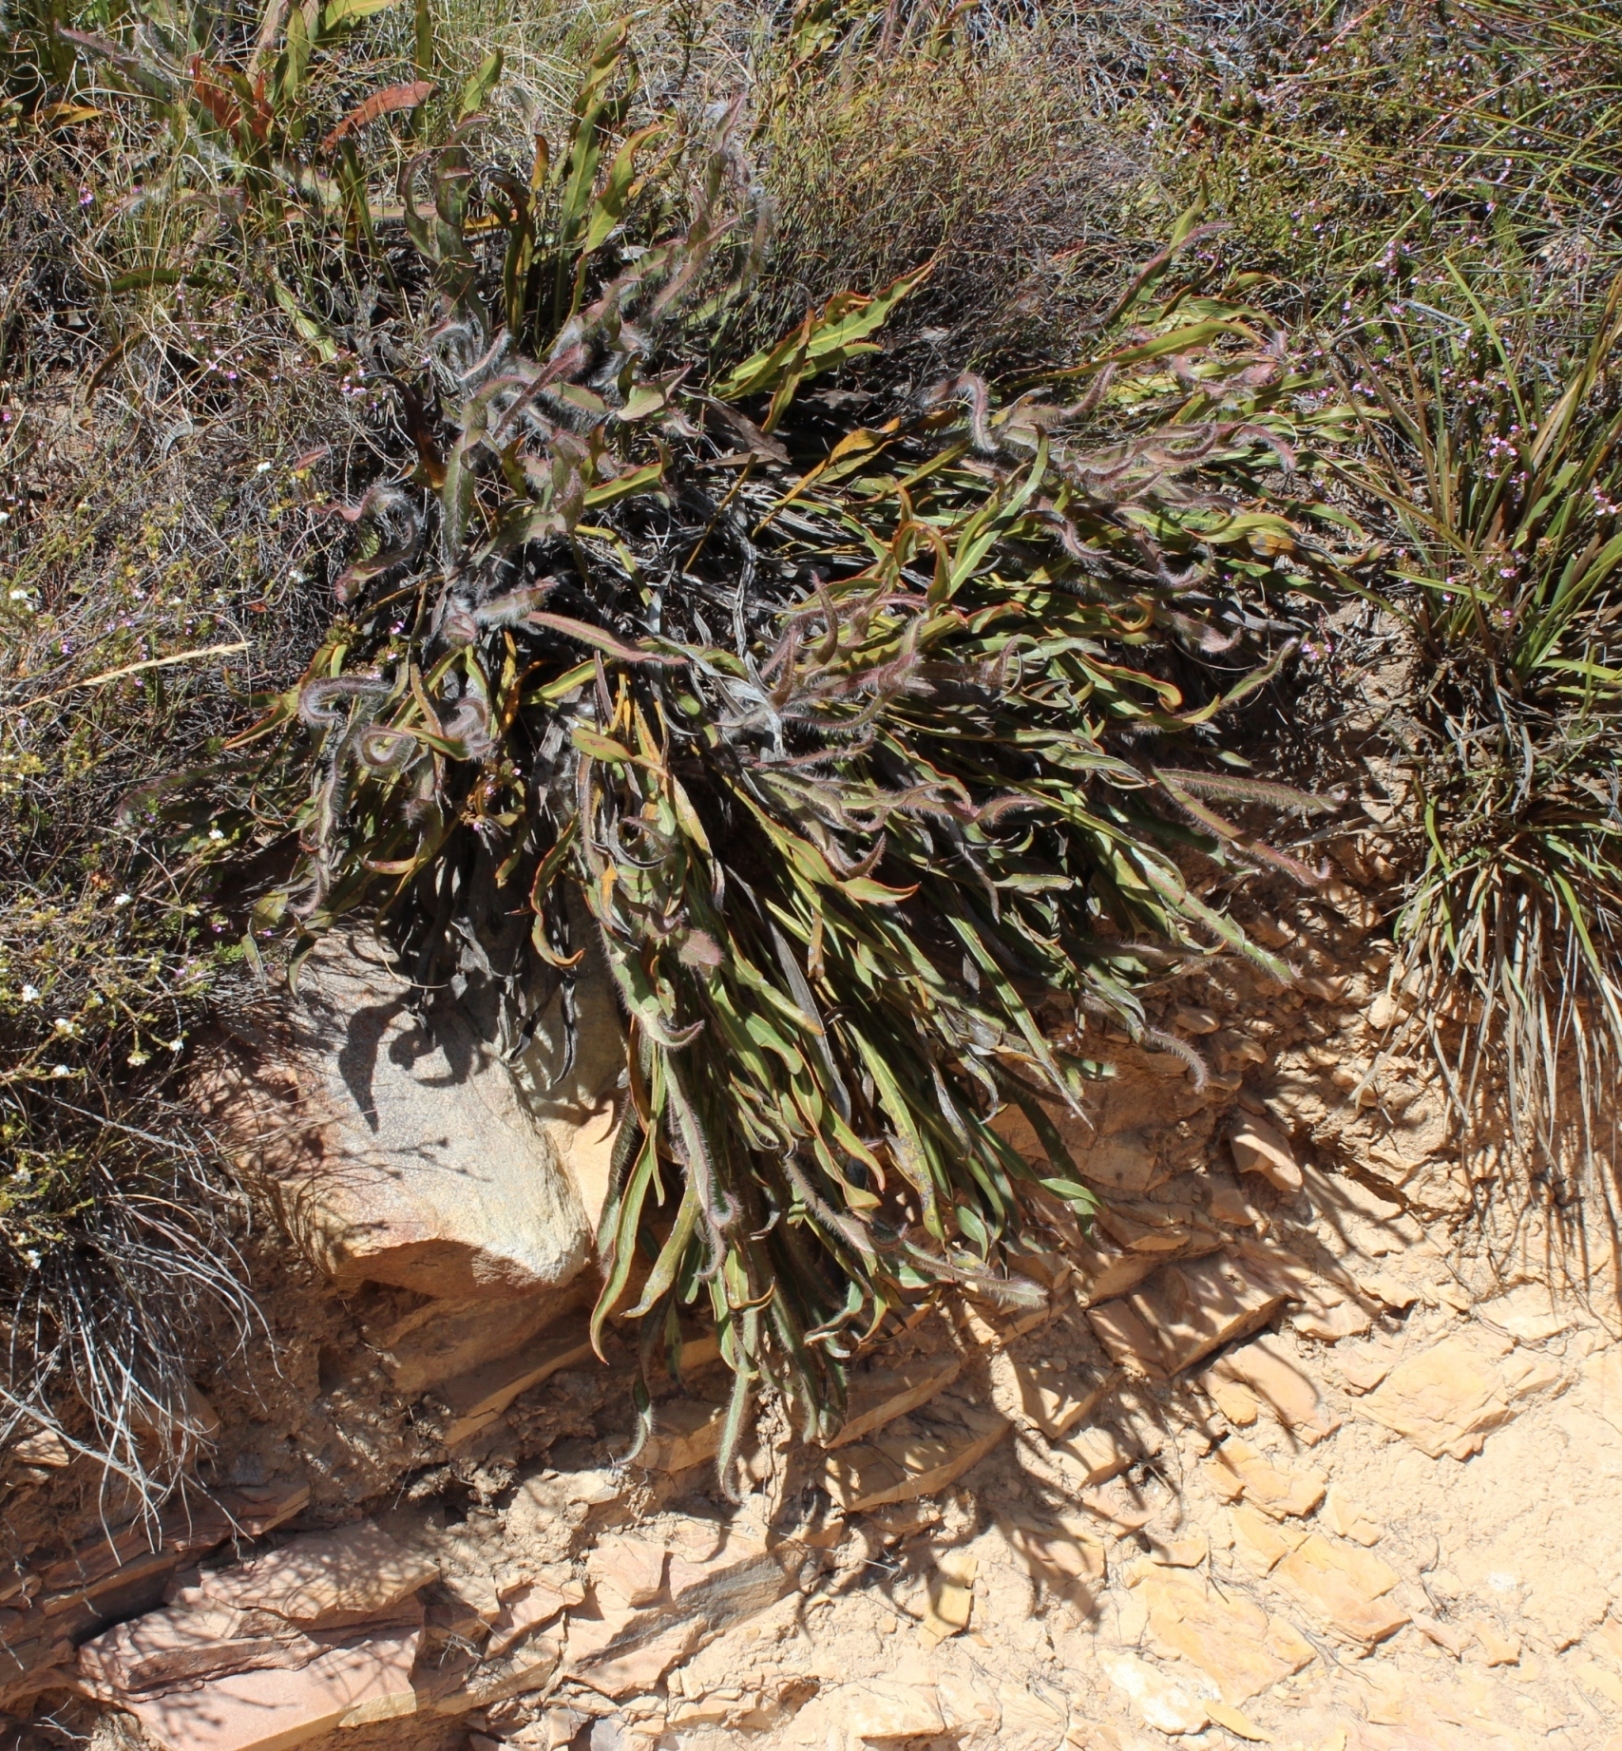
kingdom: Plantae
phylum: Tracheophyta
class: Magnoliopsida
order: Proteales
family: Proteaceae
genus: Protea
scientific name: Protea scabriuscula
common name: Hoary sugarbush
